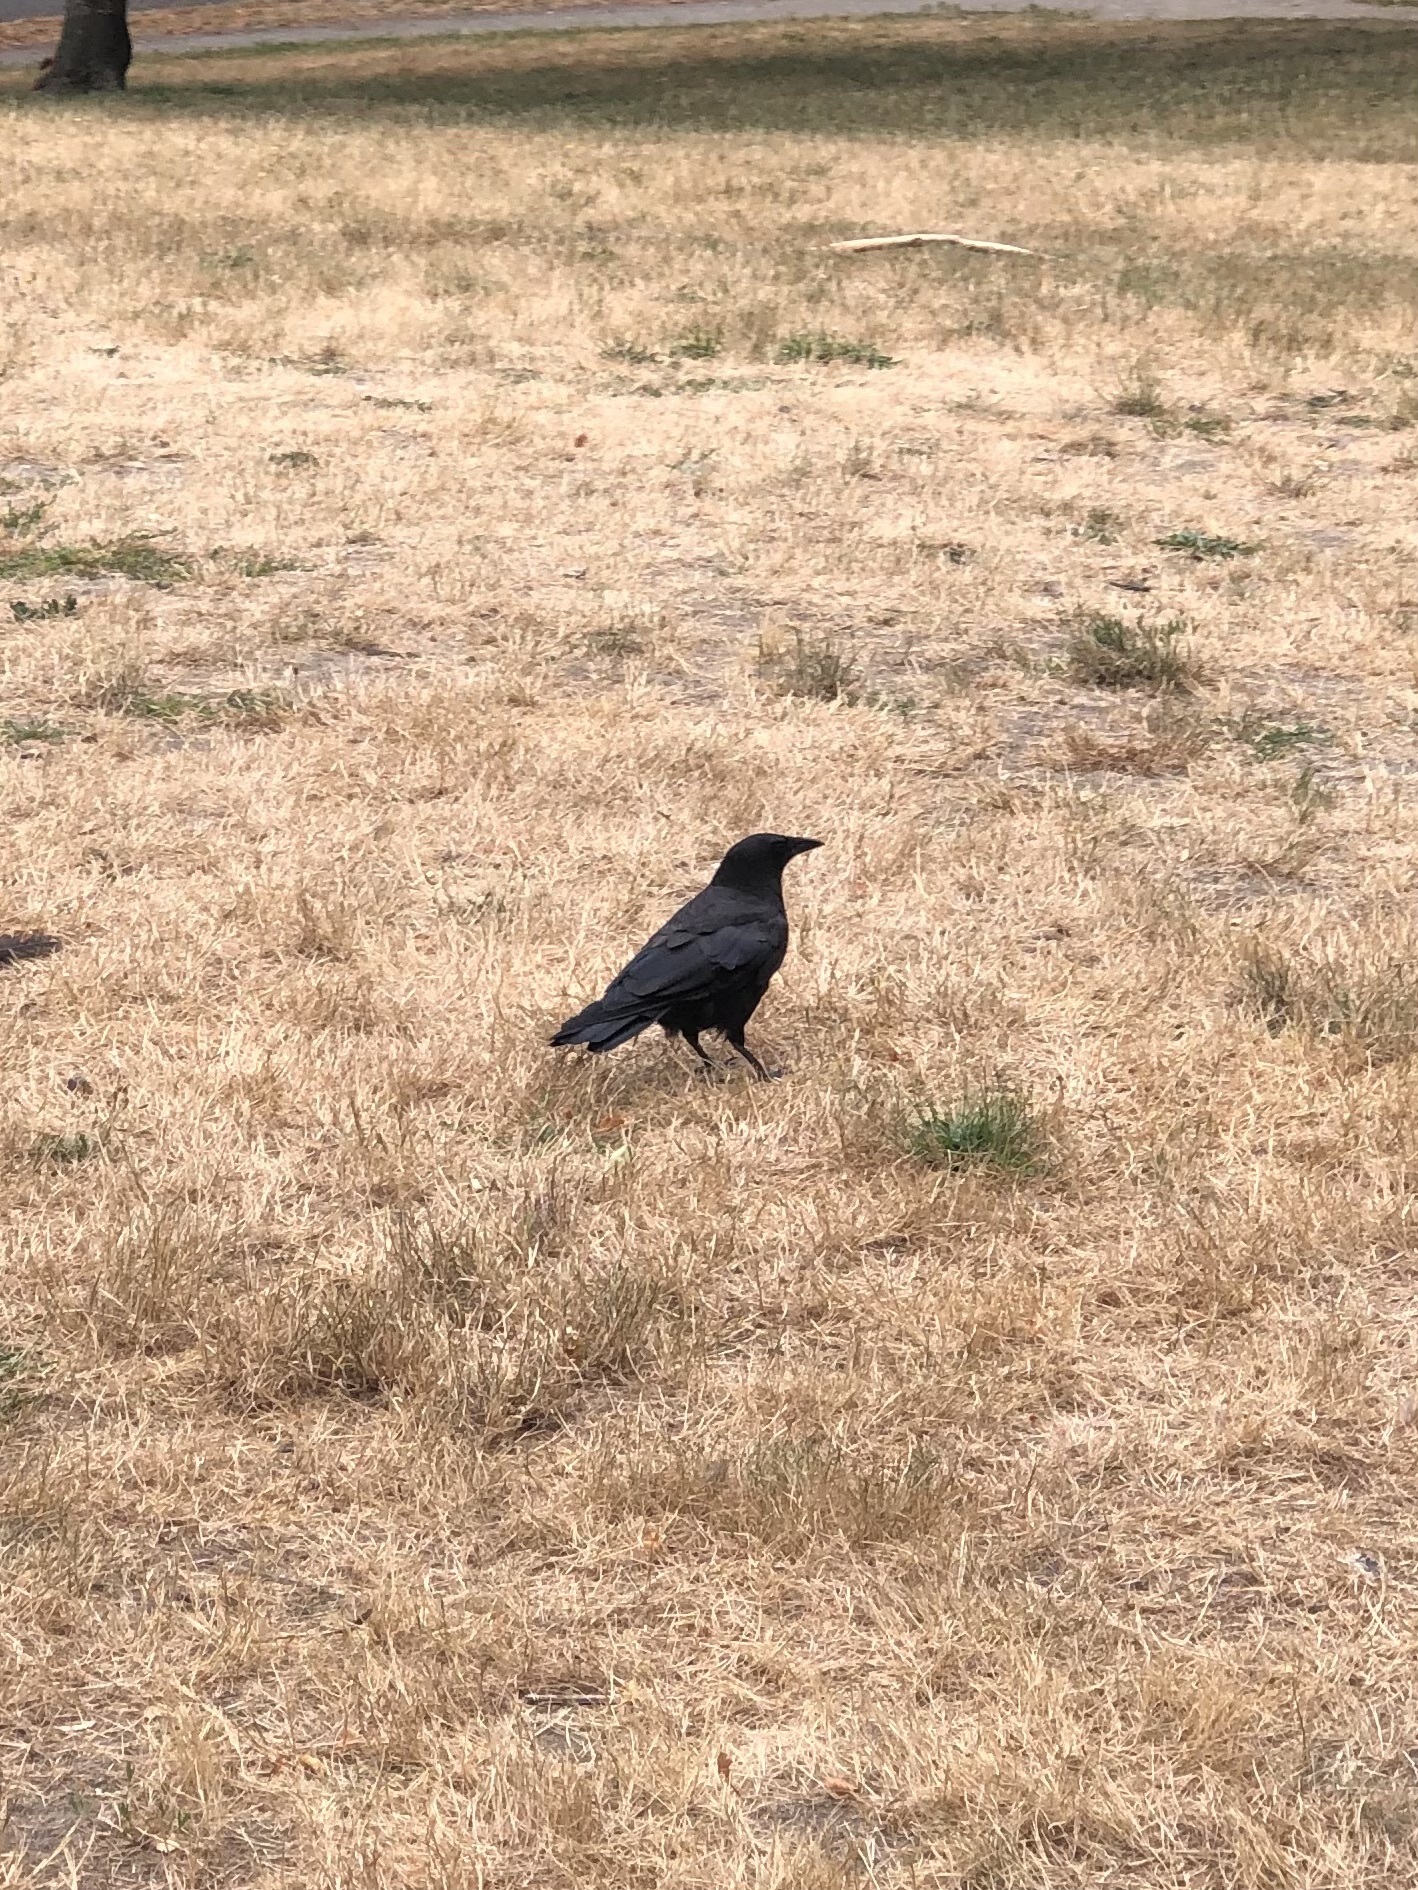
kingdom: Animalia
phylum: Chordata
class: Aves
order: Passeriformes
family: Corvidae
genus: Corvus
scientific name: Corvus brachyrhynchos
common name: American crow
